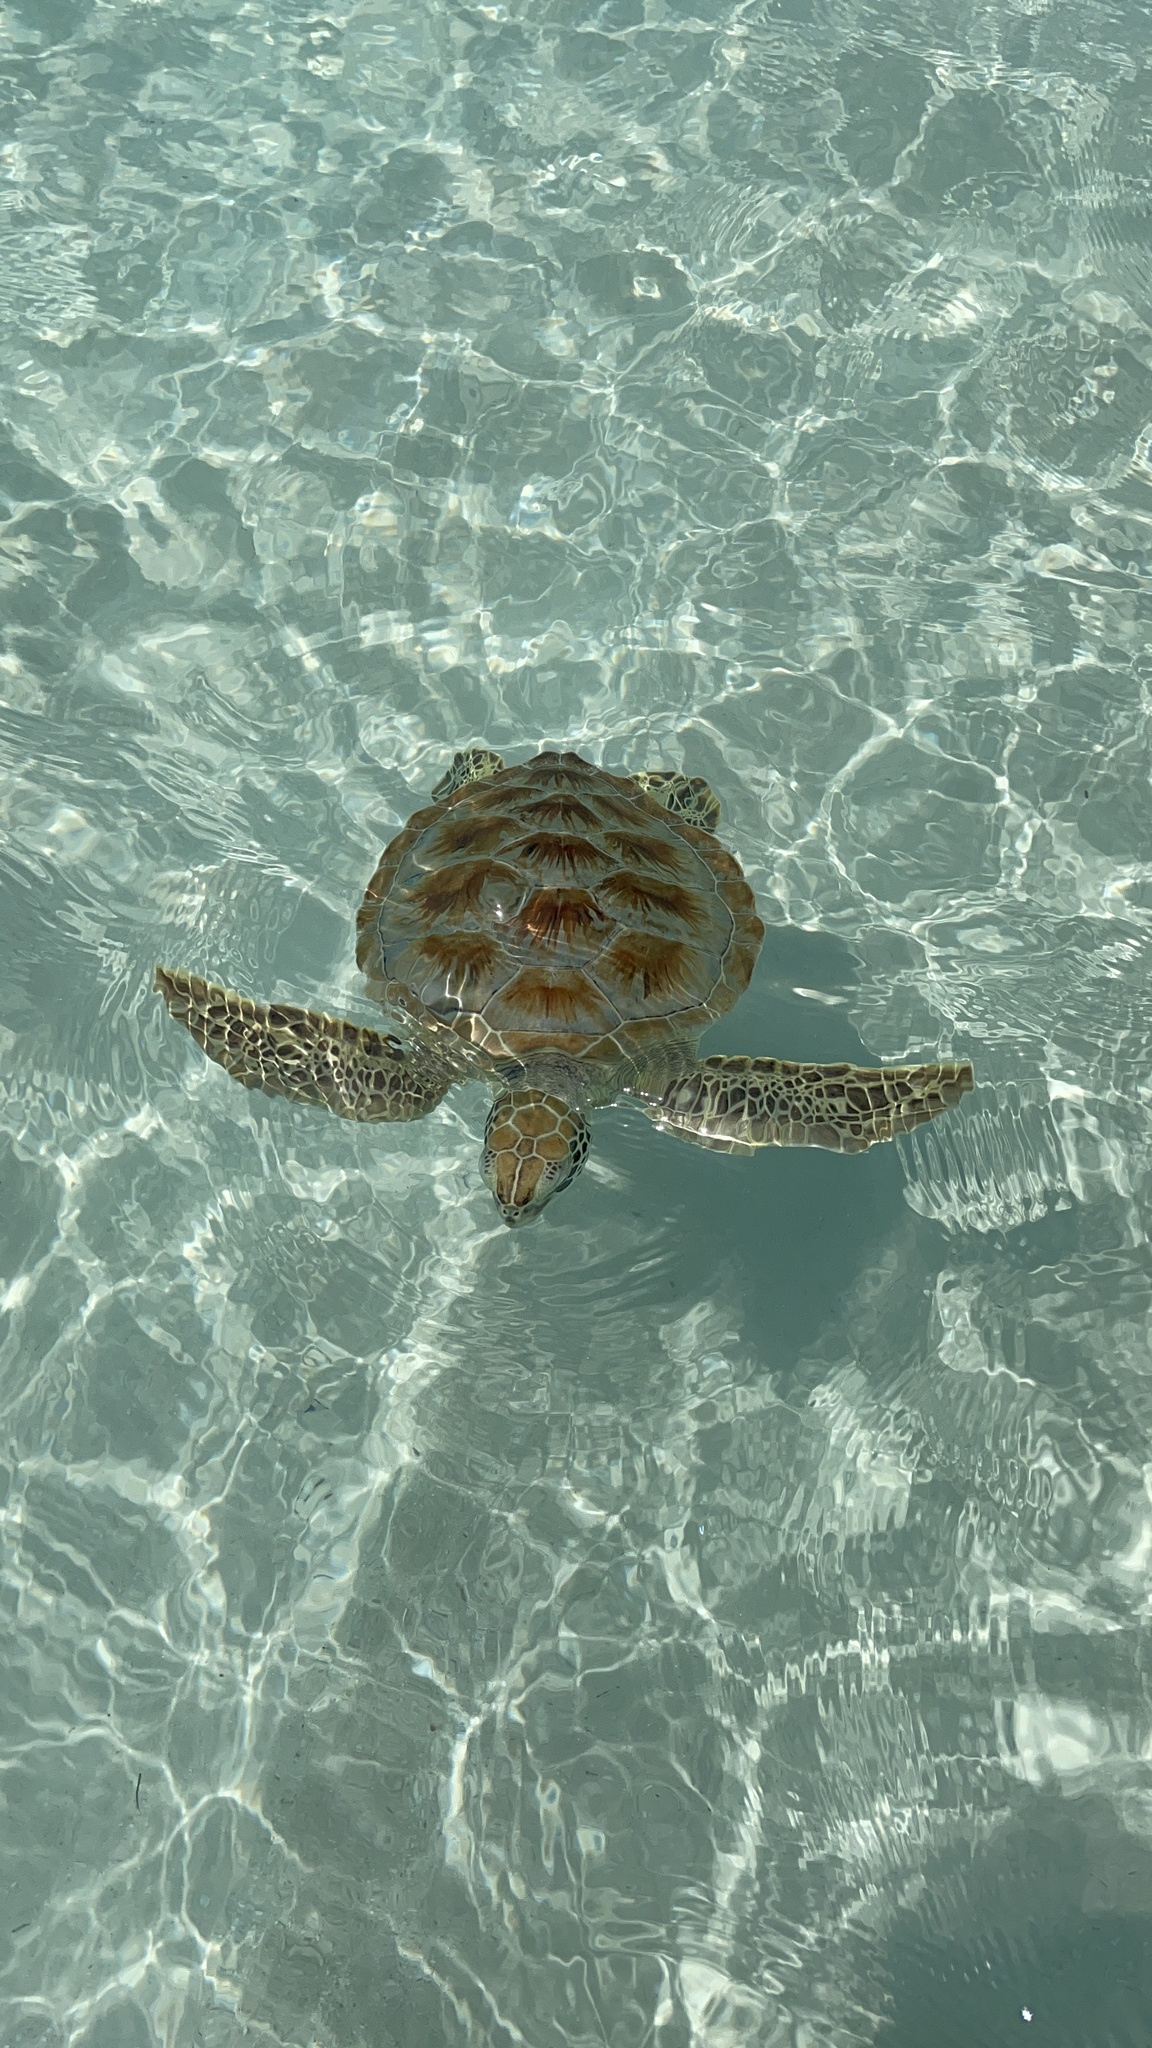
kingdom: Animalia
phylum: Chordata
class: Testudines
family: Cheloniidae
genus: Chelonia
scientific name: Chelonia mydas
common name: Green turtle
